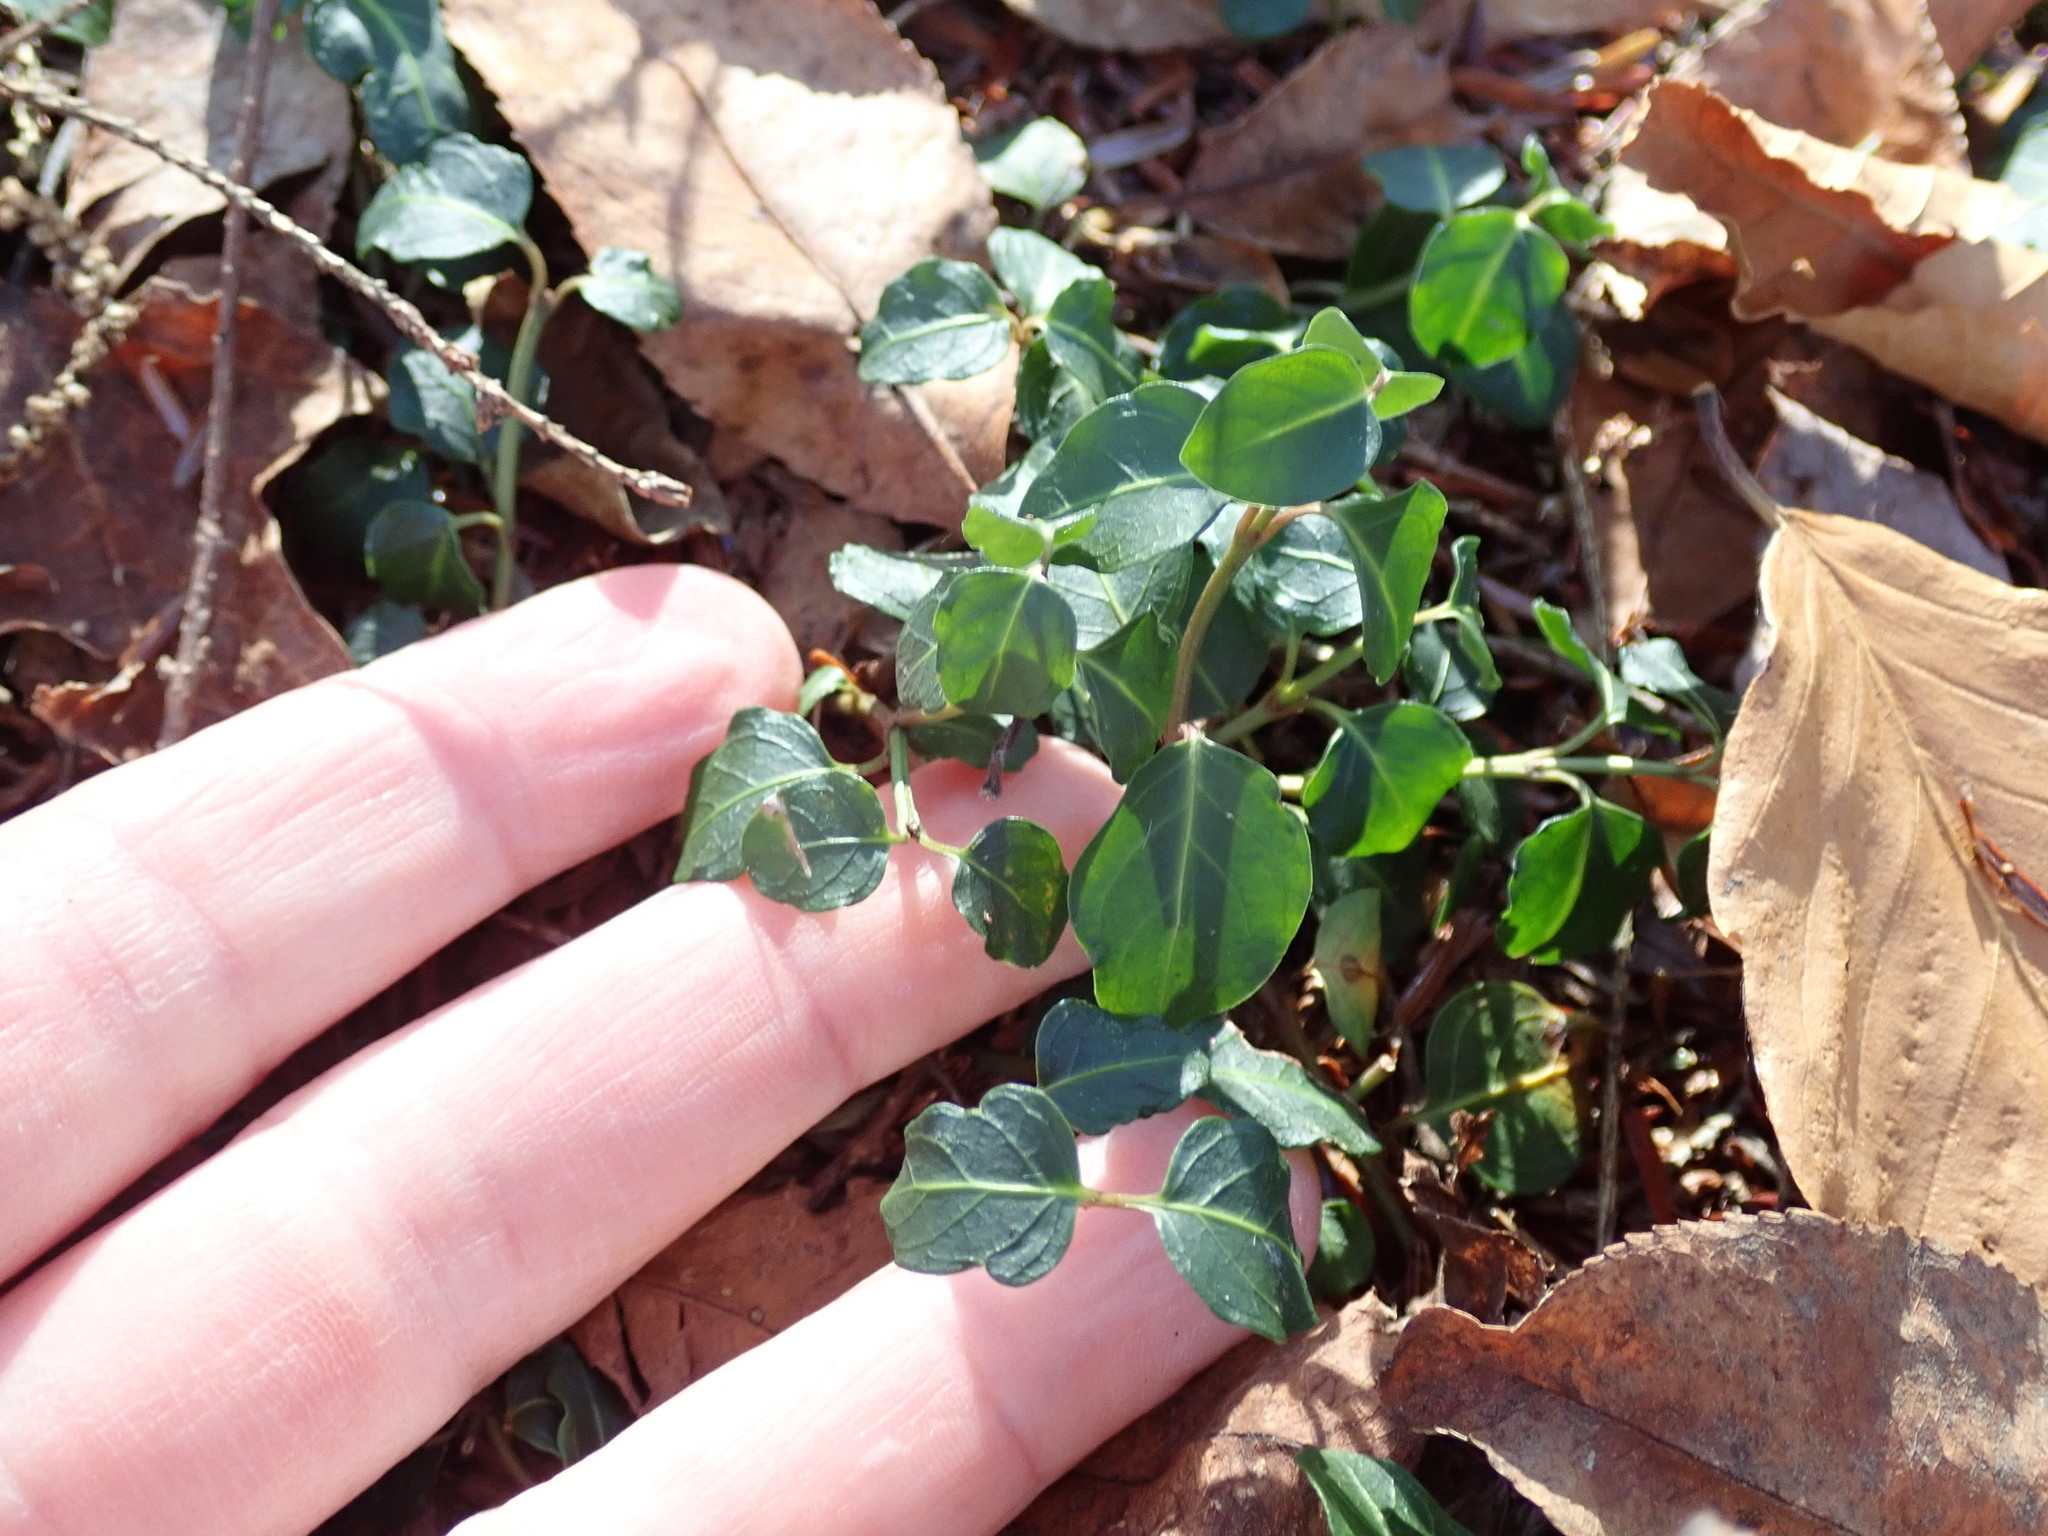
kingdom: Plantae
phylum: Tracheophyta
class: Magnoliopsida
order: Gentianales
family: Rubiaceae
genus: Mitchella
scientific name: Mitchella repens
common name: Partridge-berry
